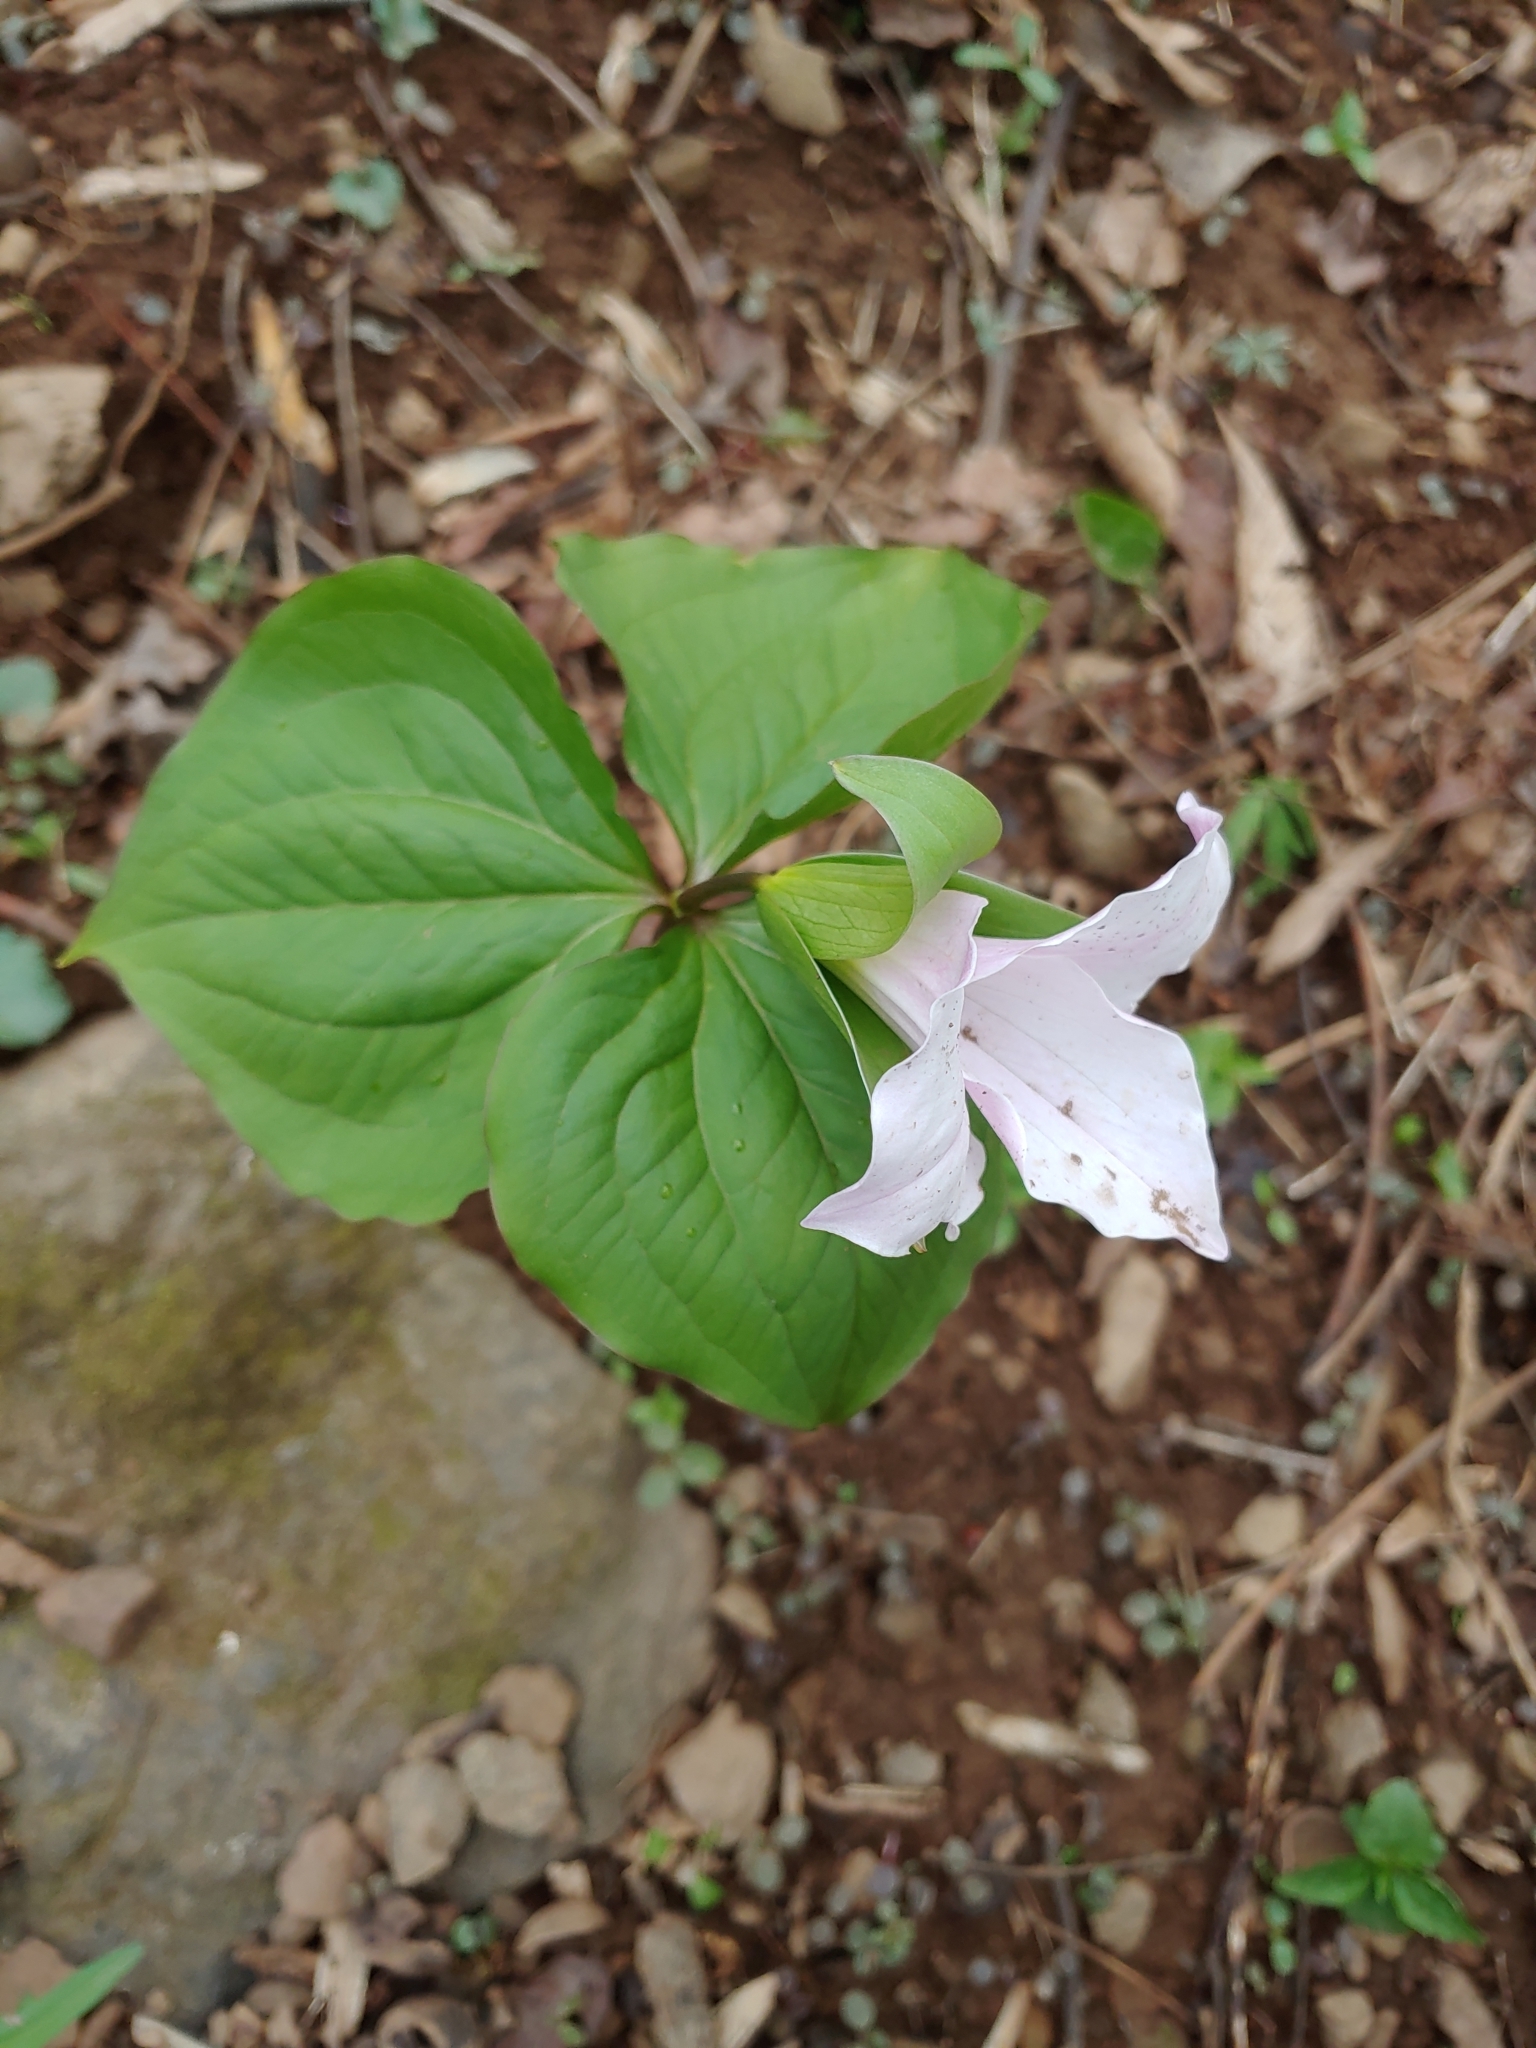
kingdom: Plantae
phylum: Tracheophyta
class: Liliopsida
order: Liliales
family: Melanthiaceae
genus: Trillium
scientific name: Trillium grandiflorum
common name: Great white trillium
